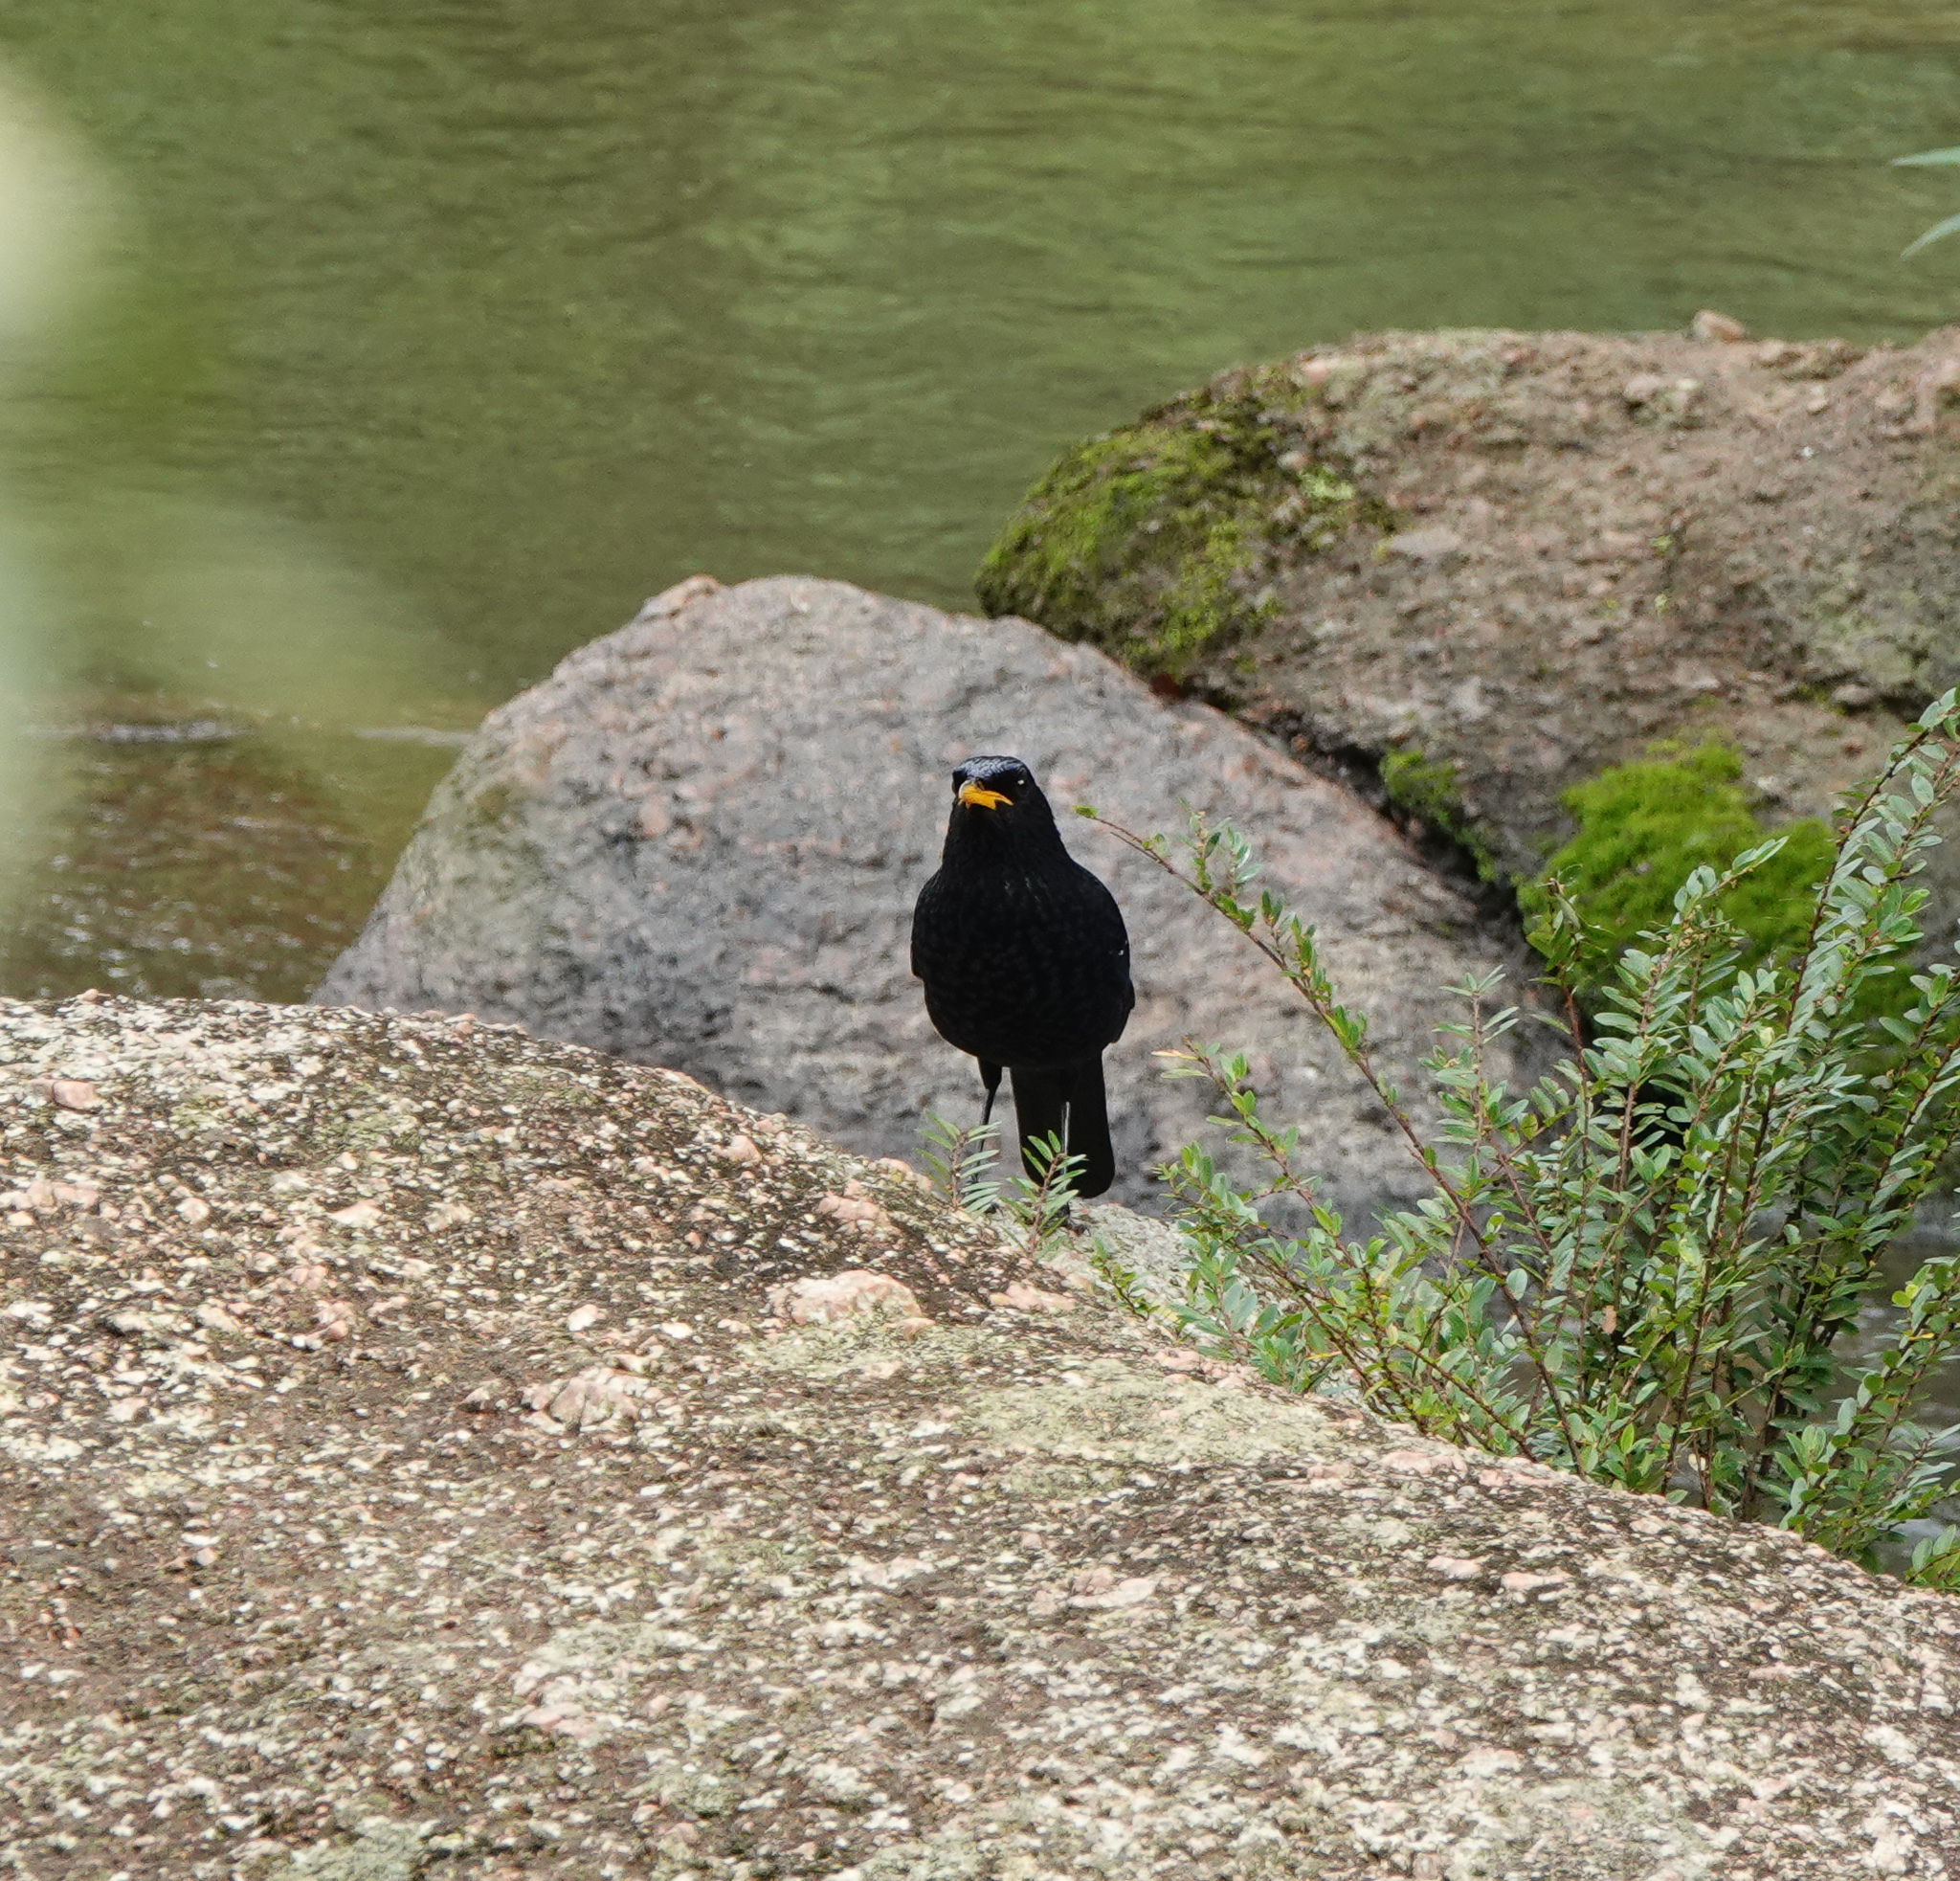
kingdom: Animalia
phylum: Chordata
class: Aves
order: Passeriformes
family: Muscicapidae
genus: Myophonus
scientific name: Myophonus caeruleus
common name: Blue whistling-thrush
